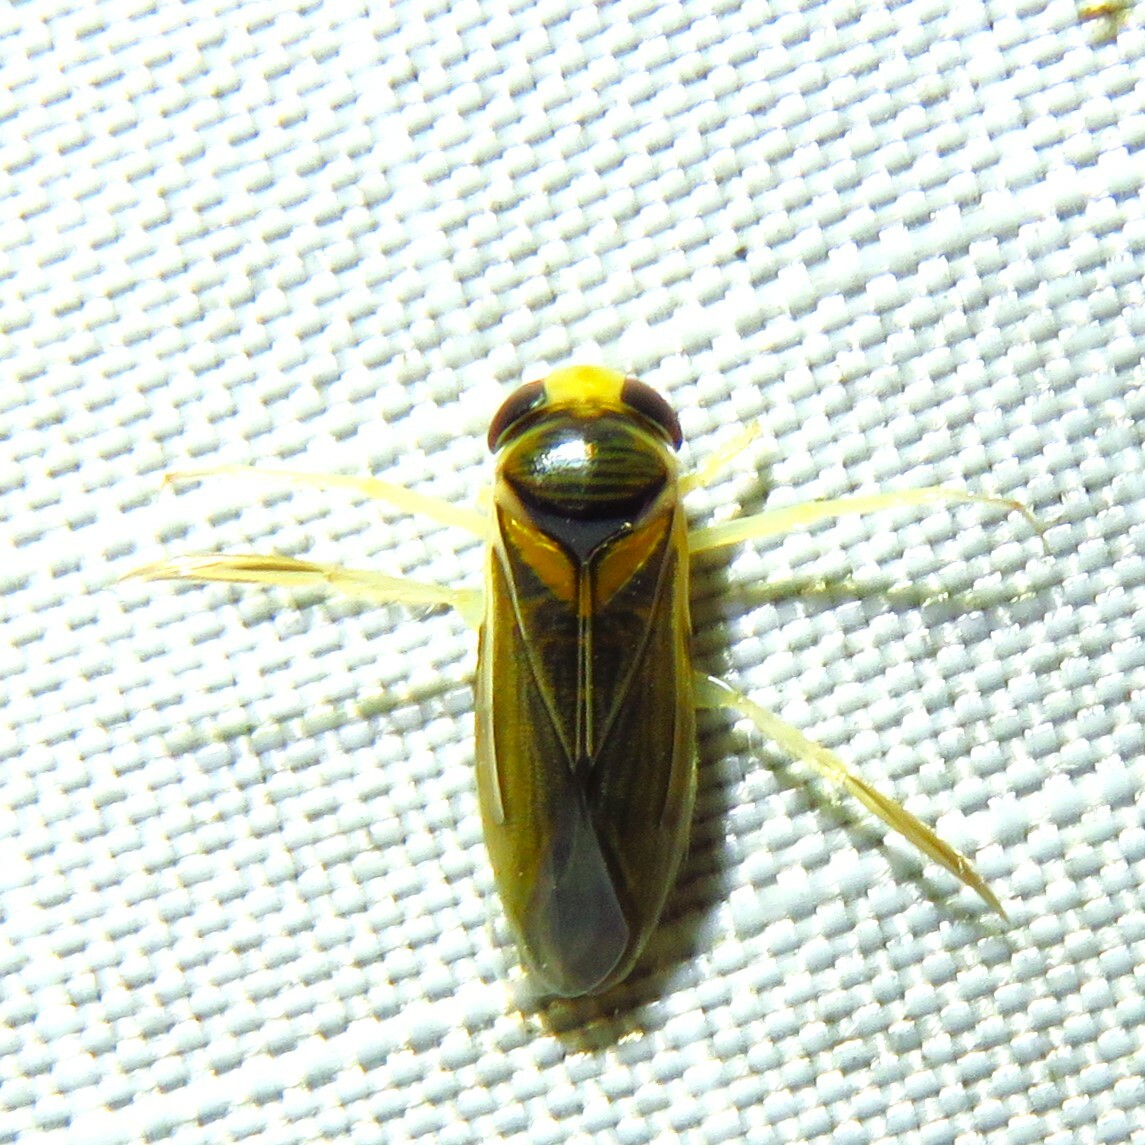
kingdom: Animalia
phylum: Arthropoda
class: Insecta
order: Hemiptera
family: Corixidae
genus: Ramphocorixa
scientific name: Ramphocorixa acuminata
